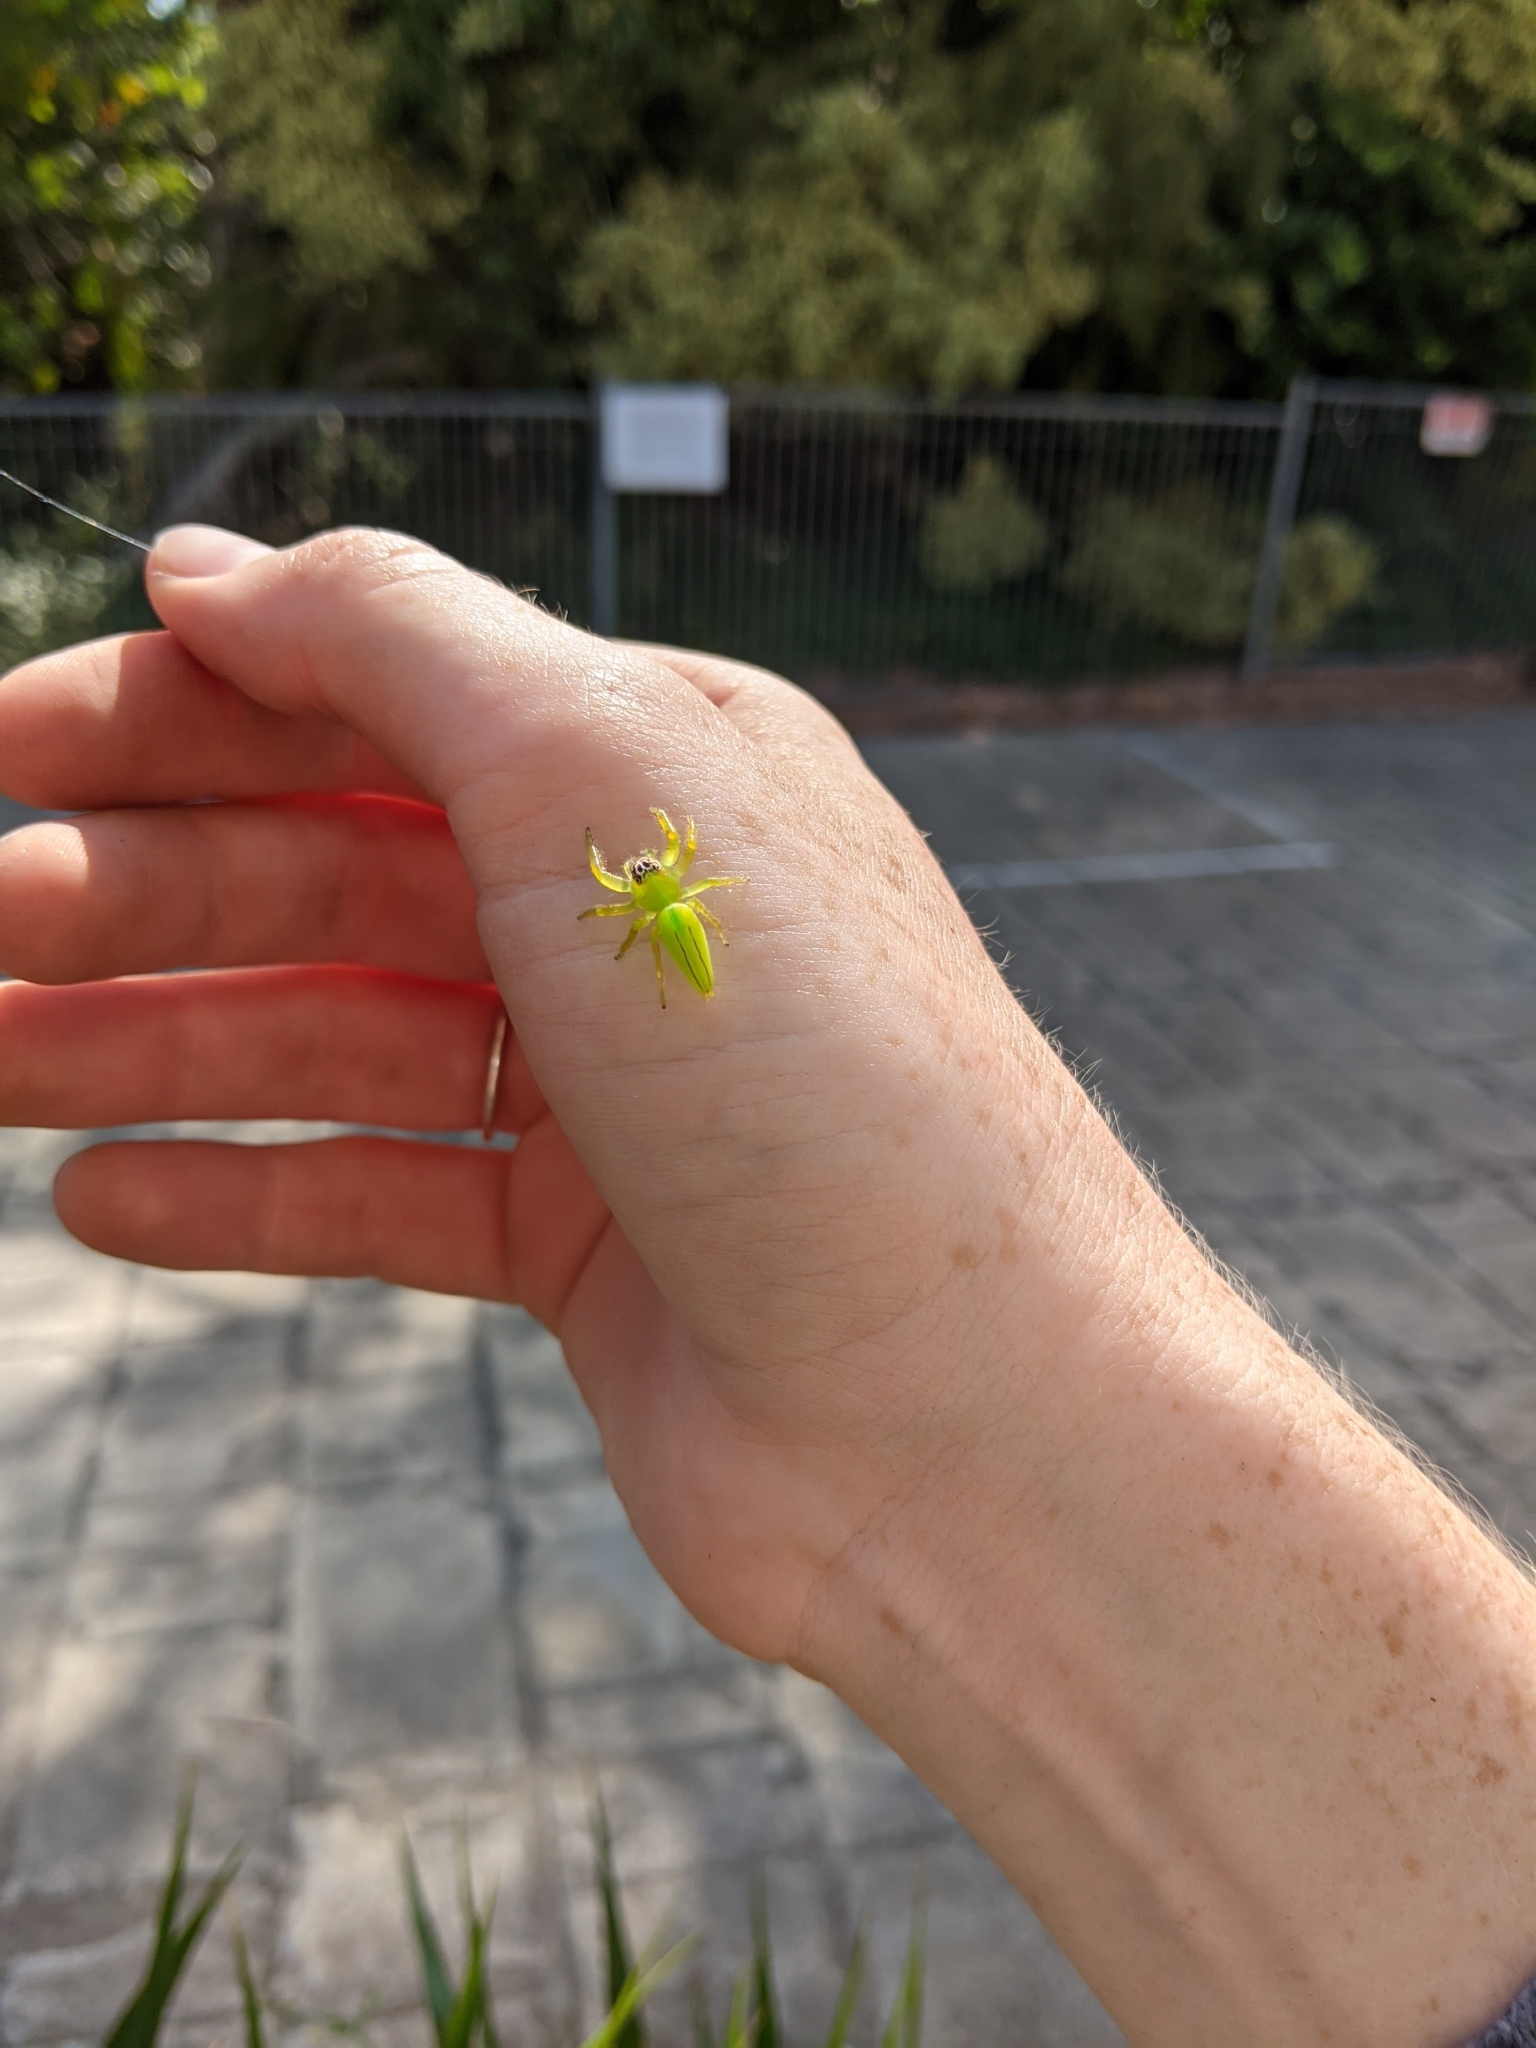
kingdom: Animalia
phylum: Arthropoda
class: Arachnida
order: Araneae
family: Salticidae
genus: Mopsus
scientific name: Mopsus mormon
